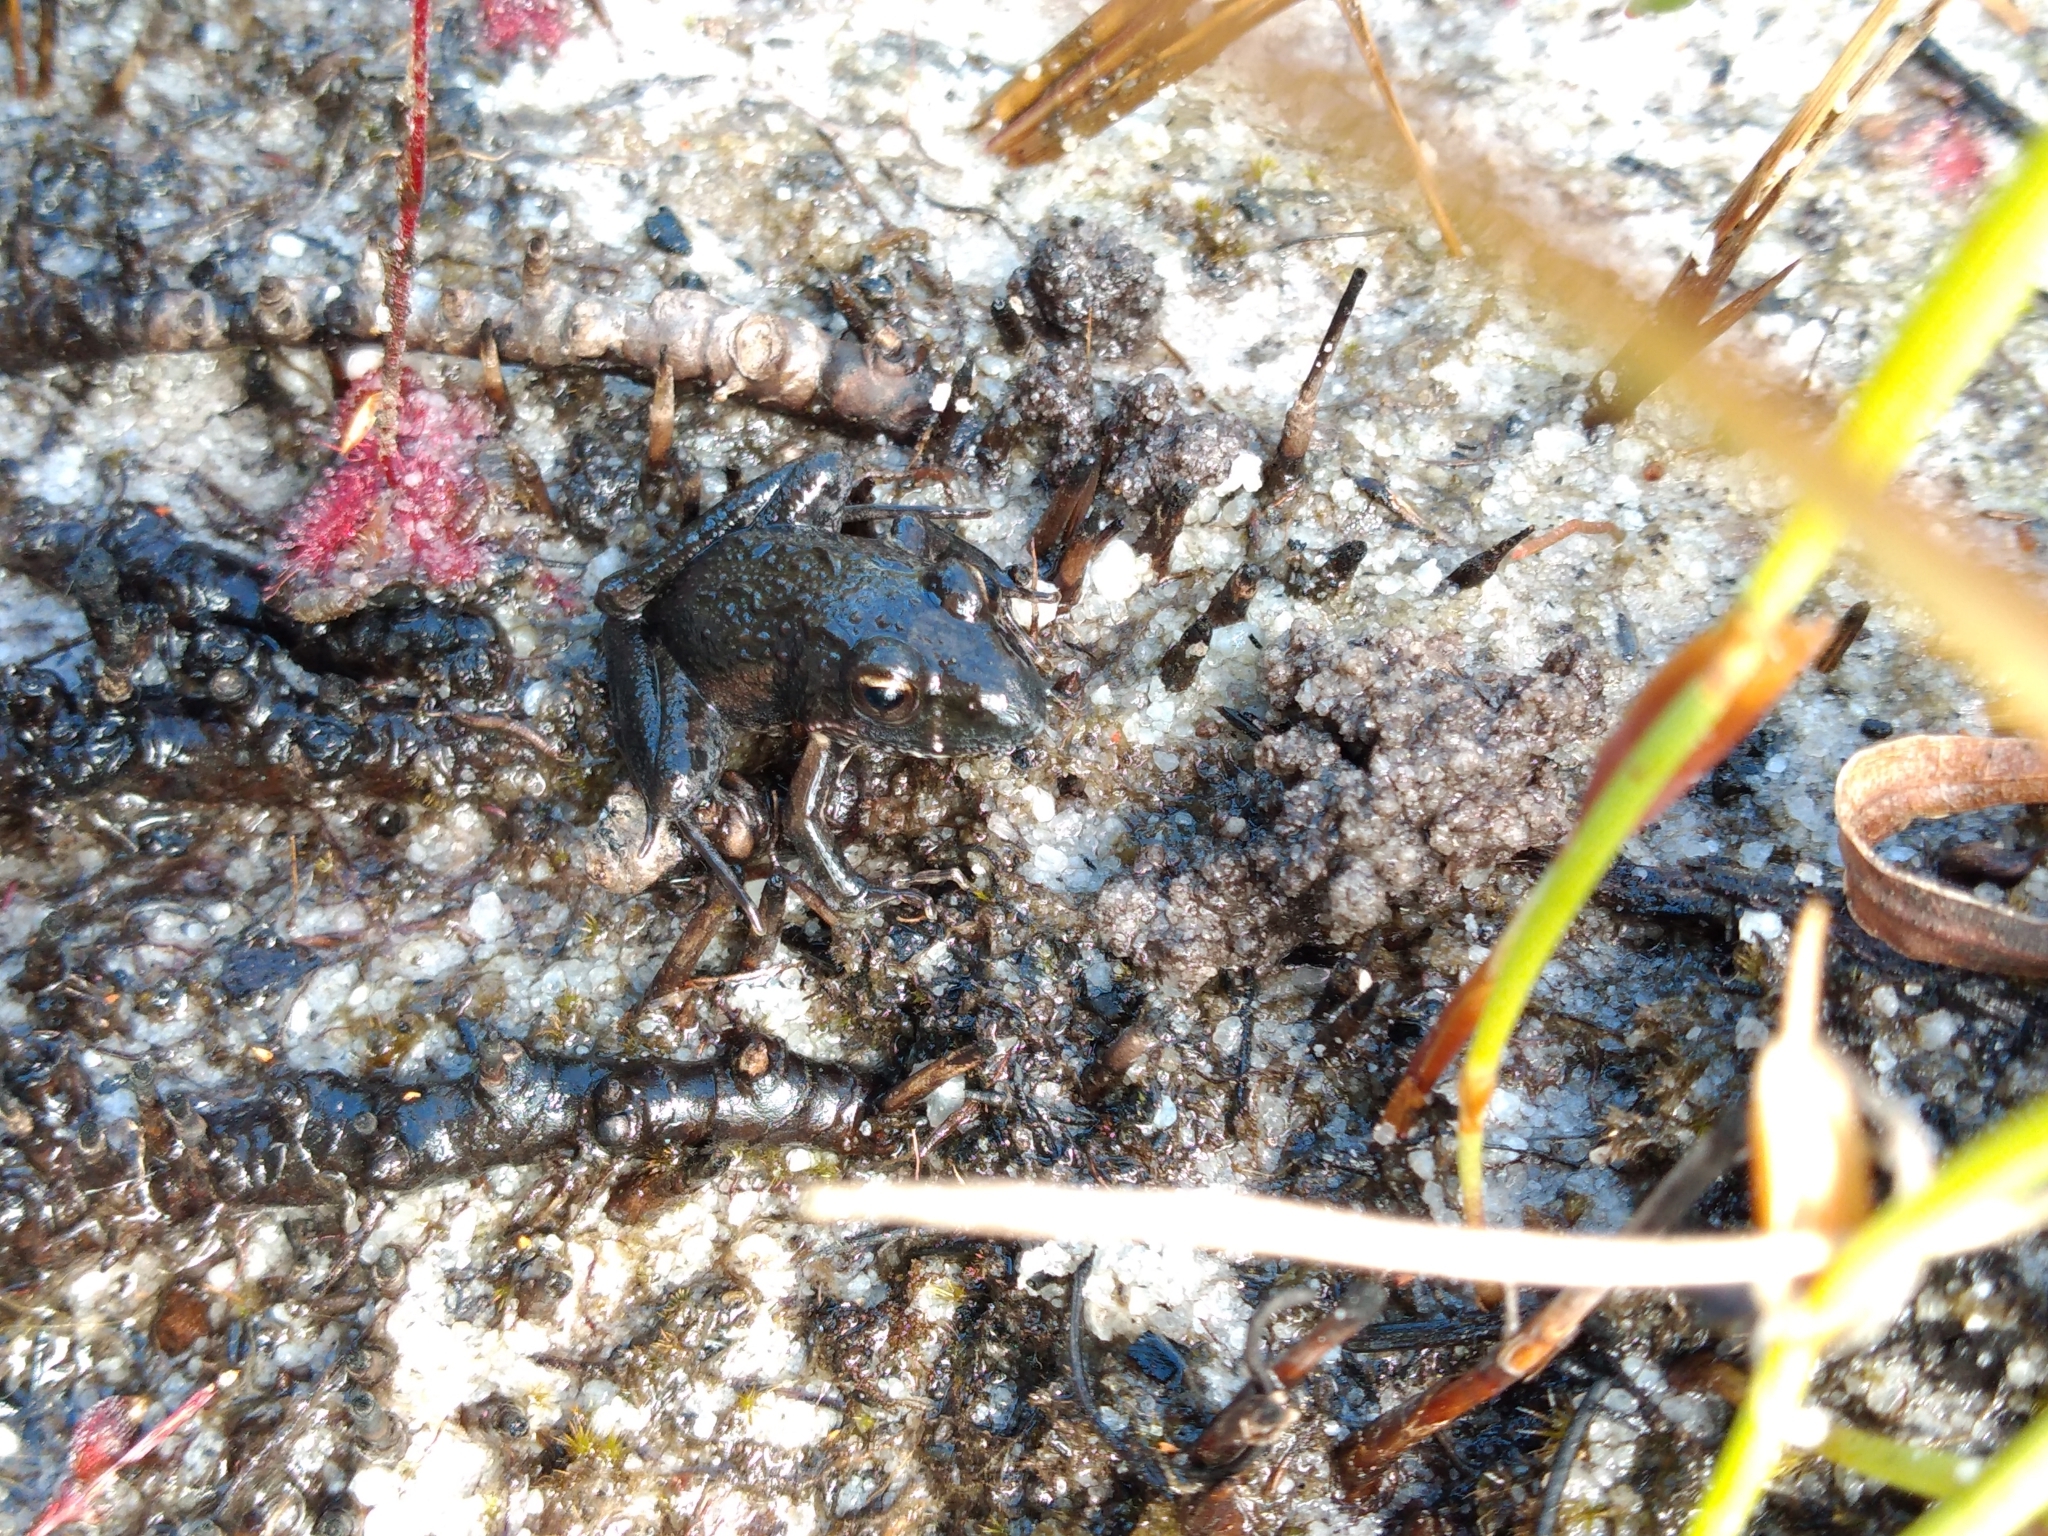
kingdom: Animalia
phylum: Chordata
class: Amphibia
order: Anura
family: Pyxicephalidae
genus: Strongylopus
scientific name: Strongylopus grayii
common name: Gray's stream frog
